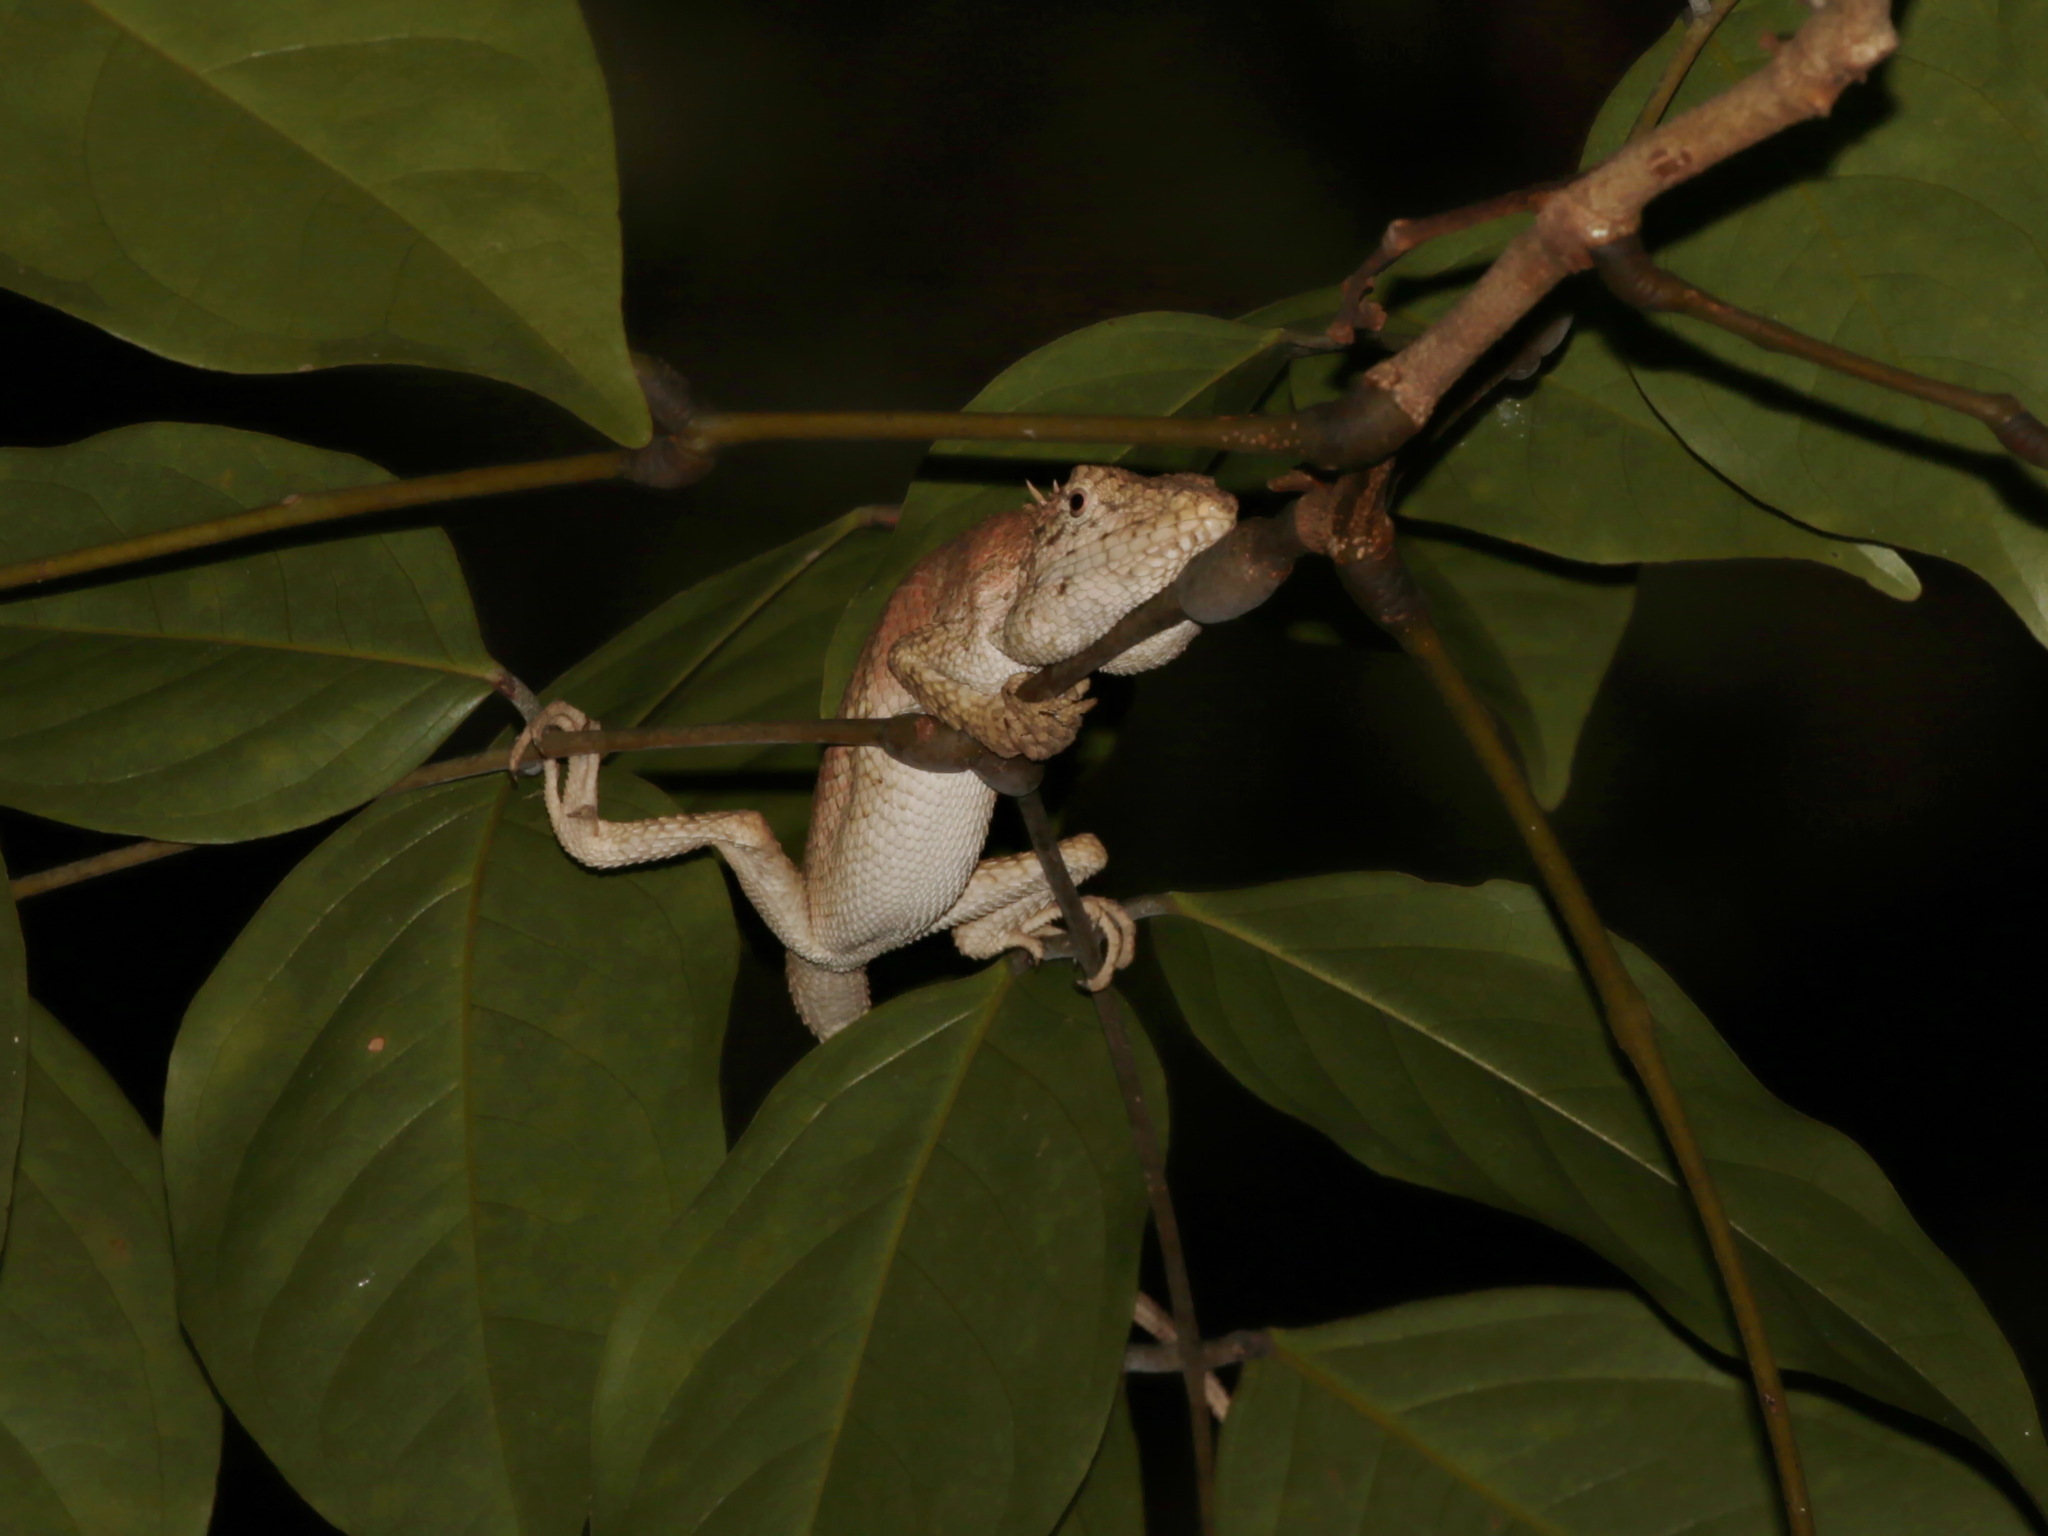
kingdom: Animalia
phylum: Chordata
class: Squamata
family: Agamidae
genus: Pseudocalotes
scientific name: Pseudocalotes floweri
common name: Flower’s forest agamid
